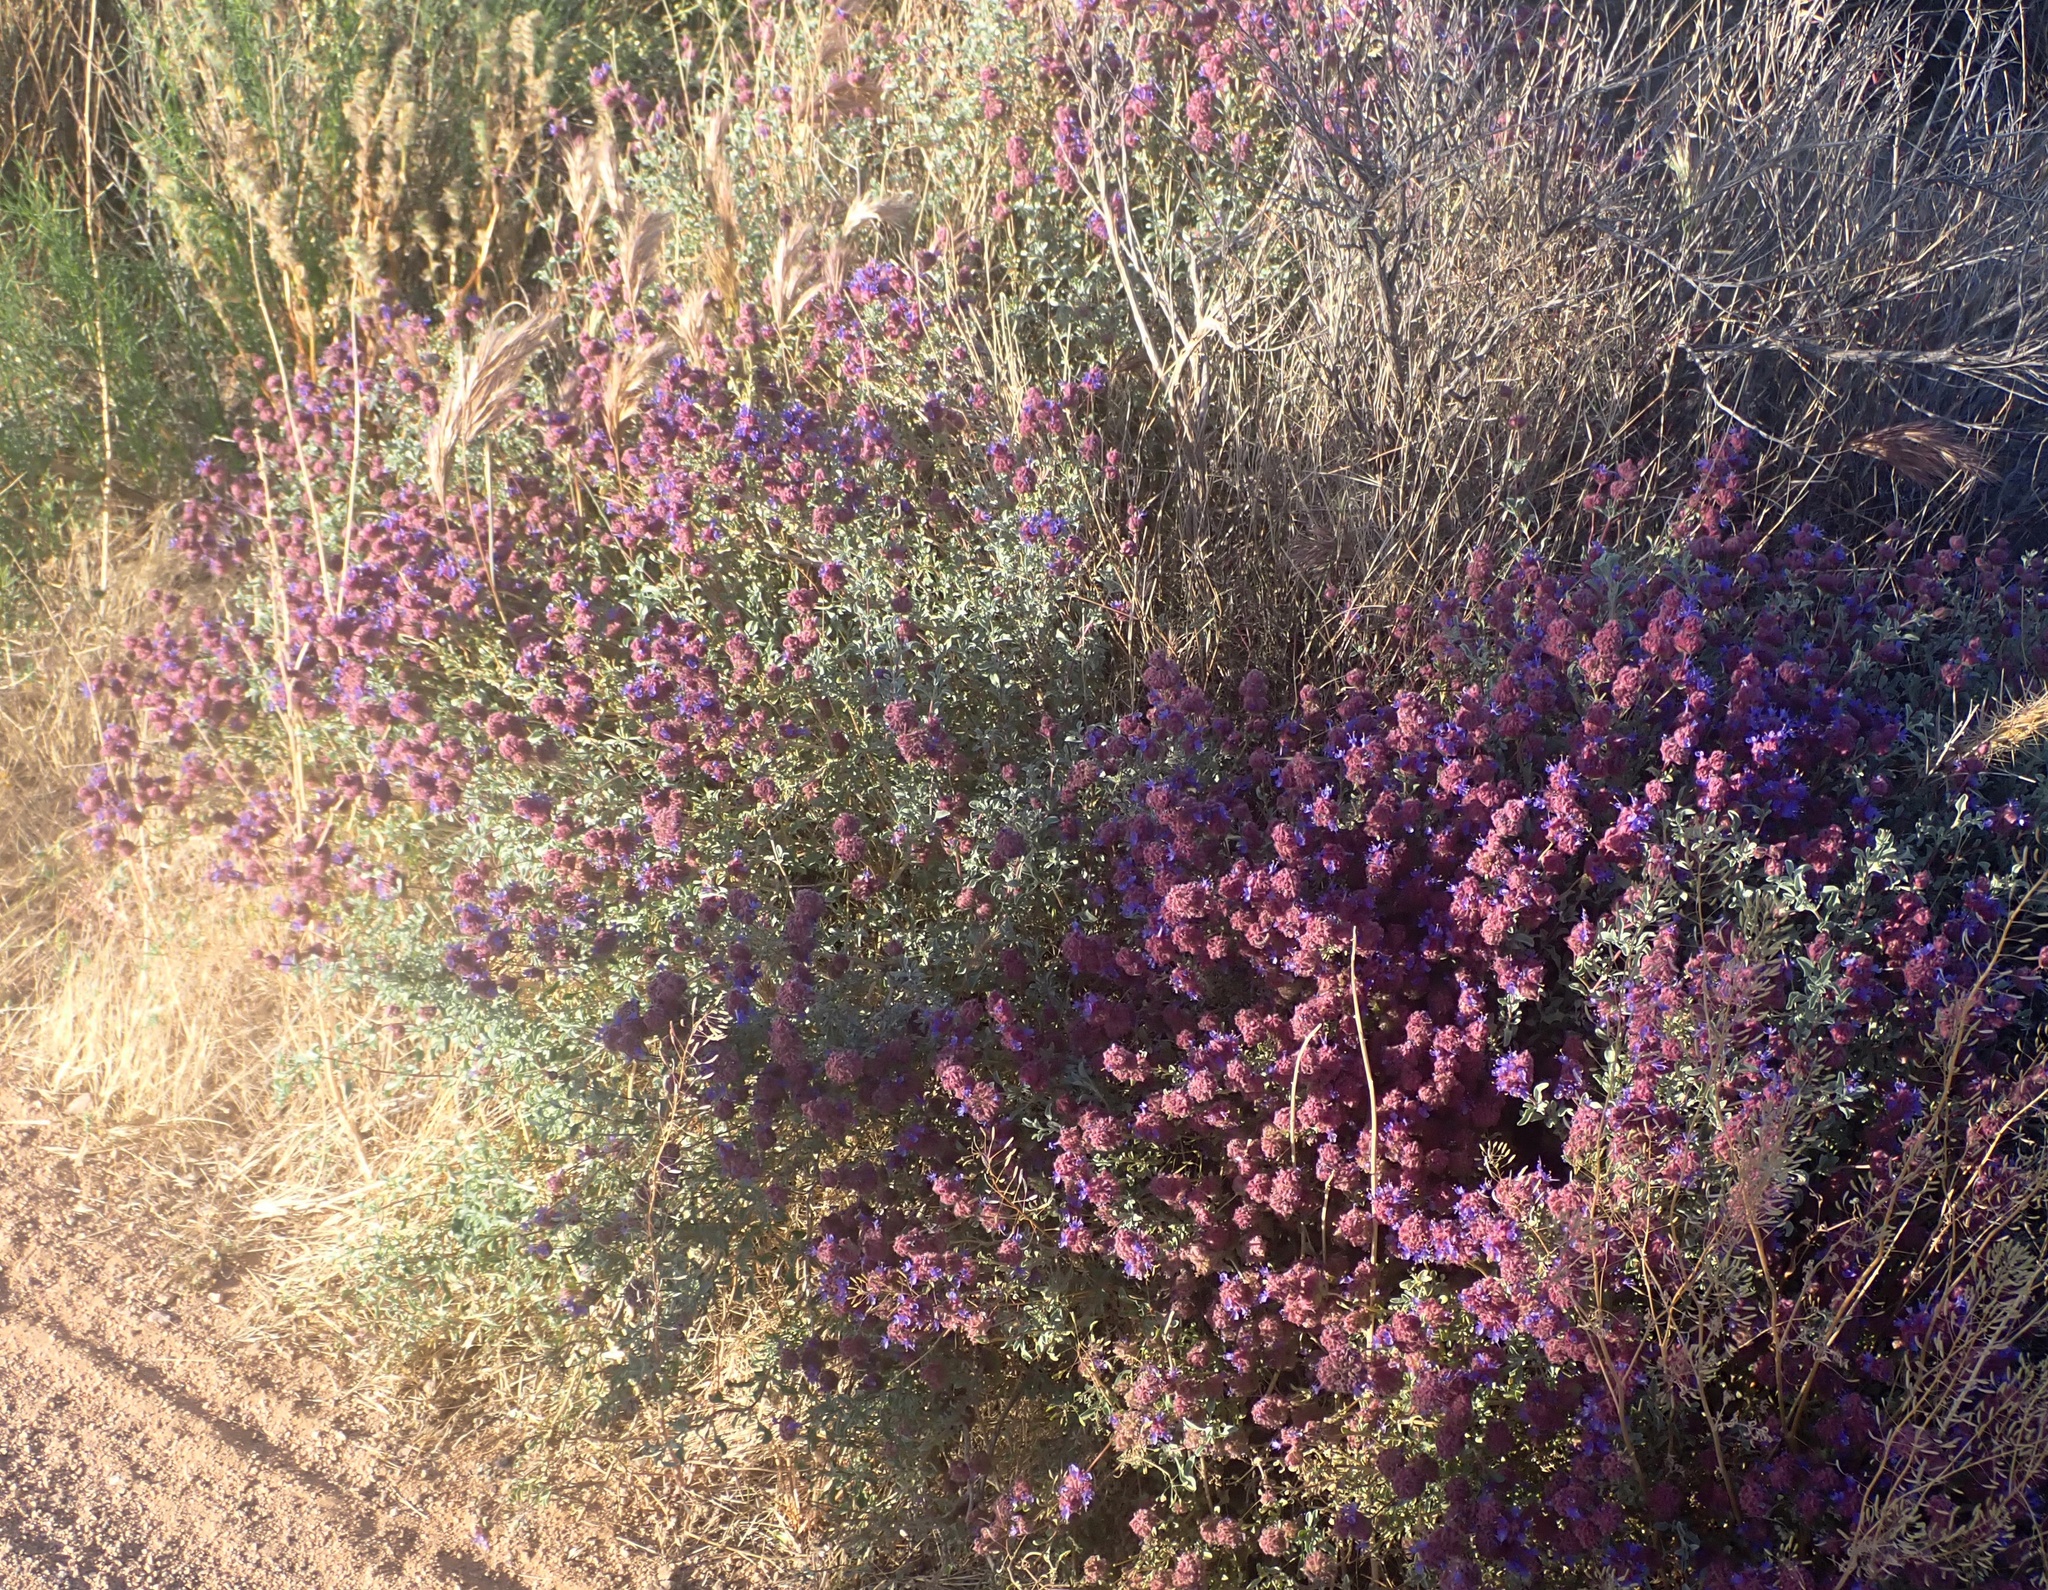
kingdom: Plantae
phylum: Tracheophyta
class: Magnoliopsida
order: Lamiales
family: Lamiaceae
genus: Salvia
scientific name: Salvia dorrii
